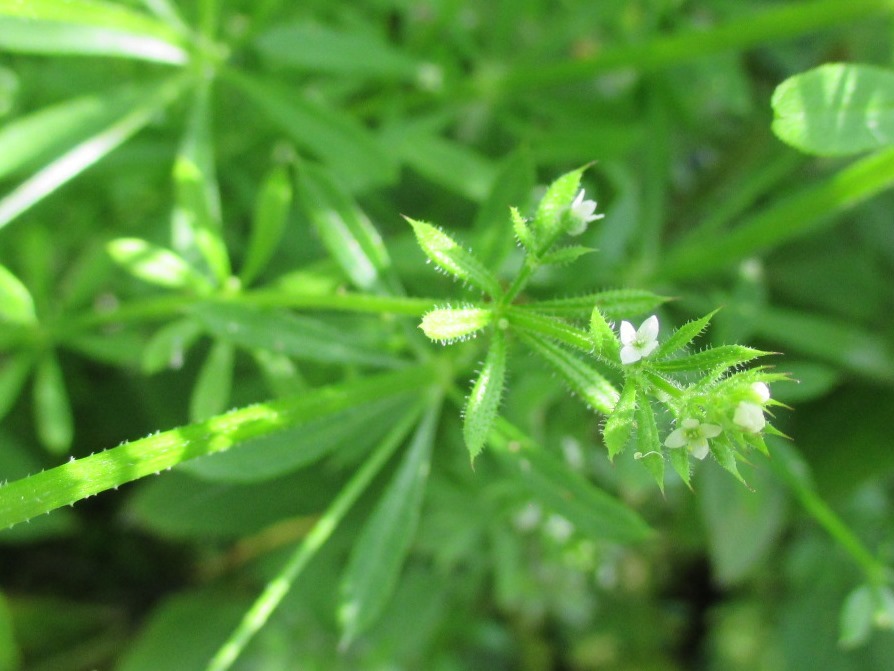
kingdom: Plantae
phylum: Tracheophyta
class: Magnoliopsida
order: Gentianales
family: Rubiaceae
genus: Galium
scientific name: Galium aparine
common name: Cleavers
